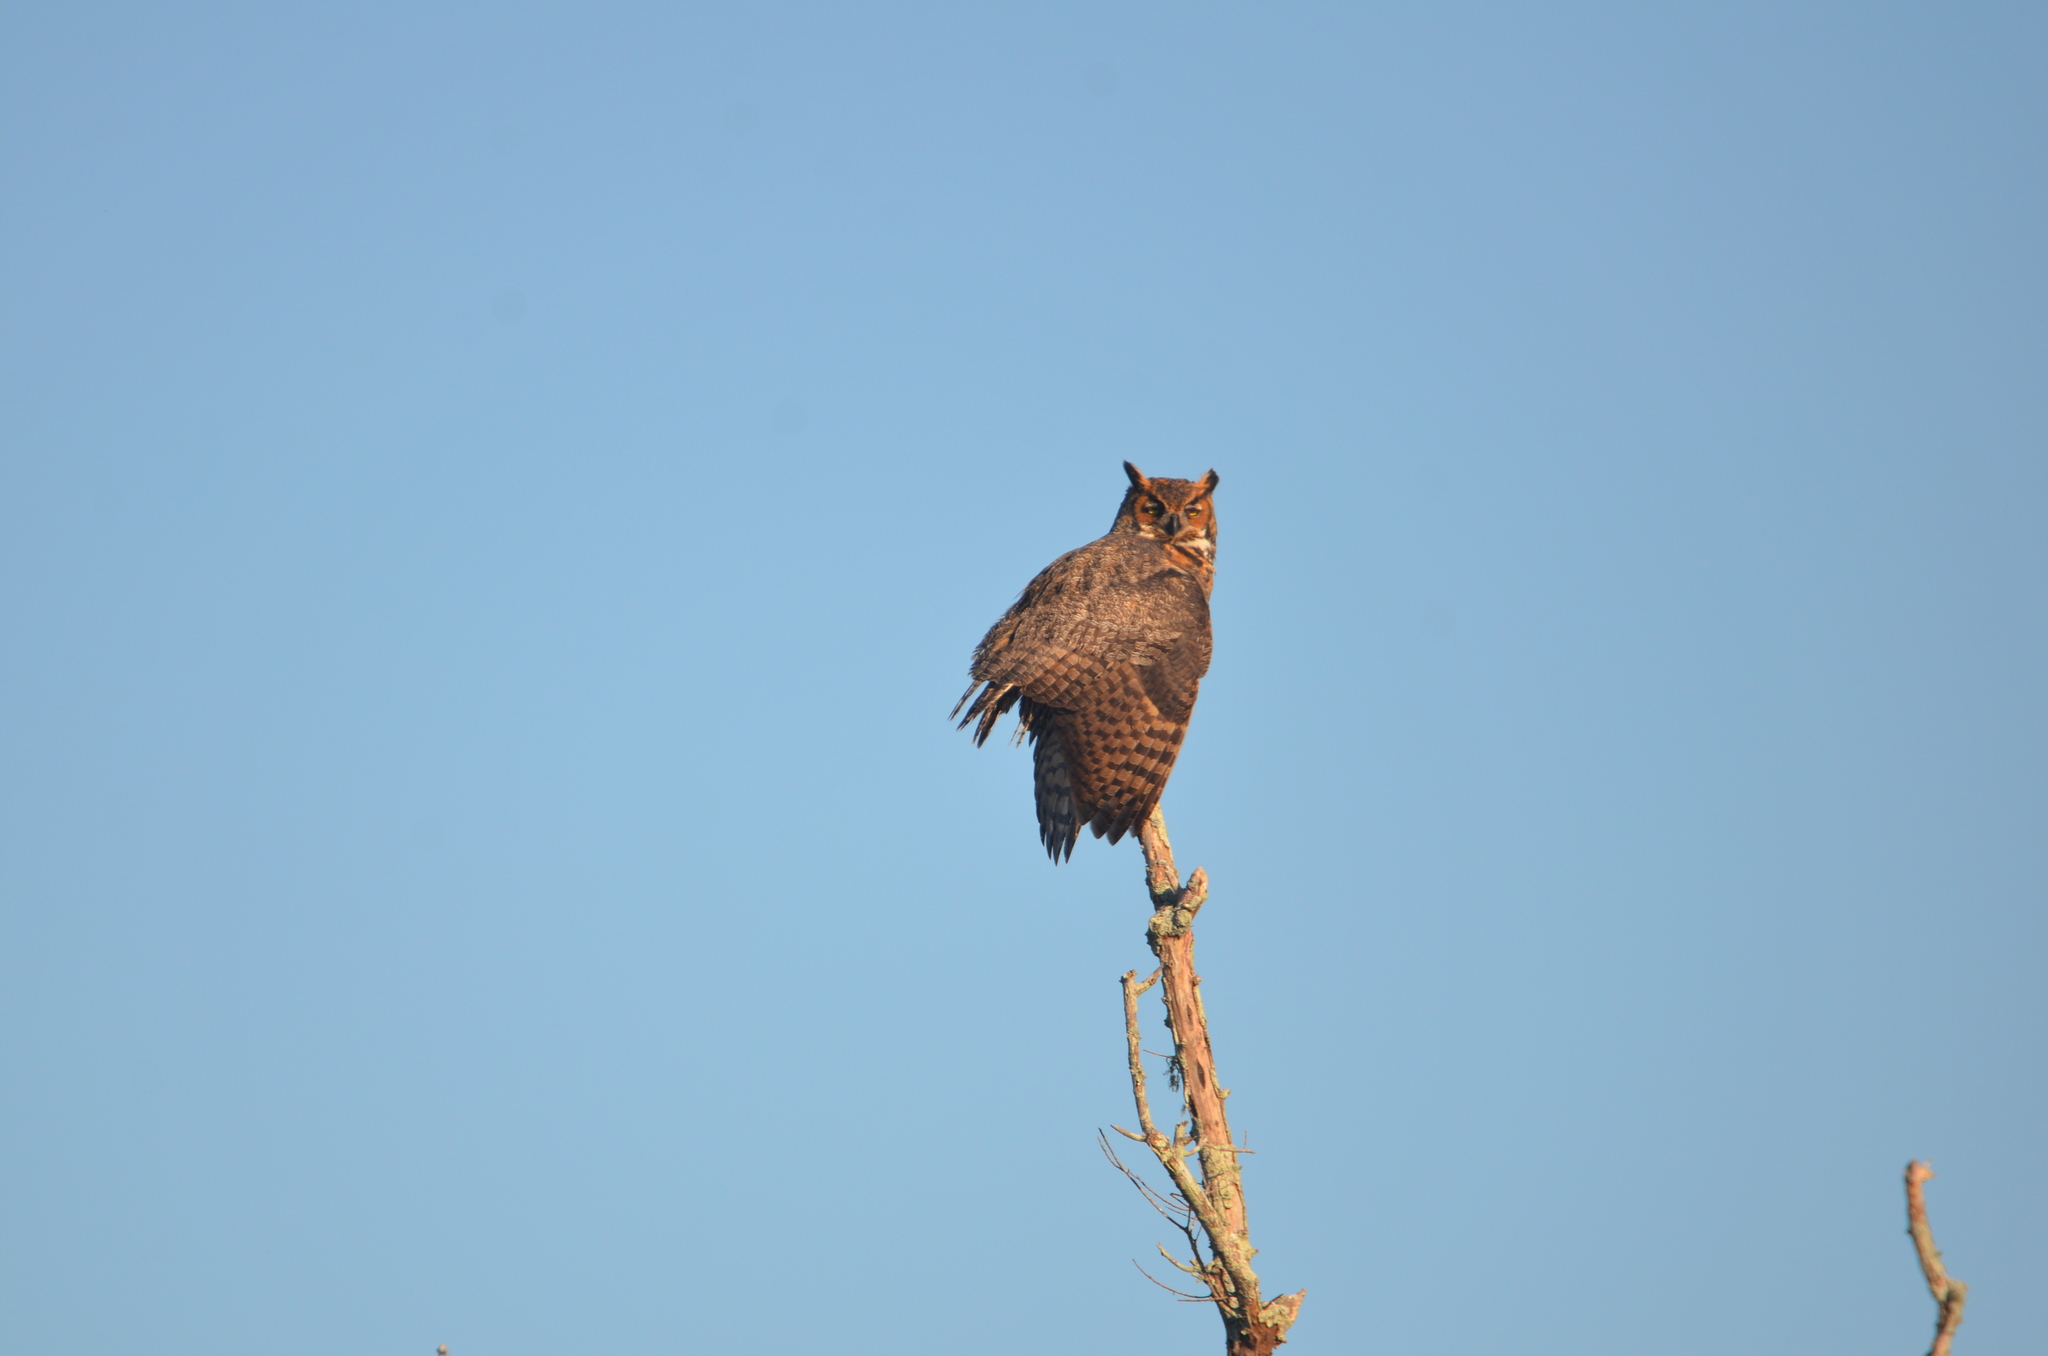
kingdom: Animalia
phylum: Chordata
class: Aves
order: Strigiformes
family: Strigidae
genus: Bubo
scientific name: Bubo virginianus
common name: Great horned owl
